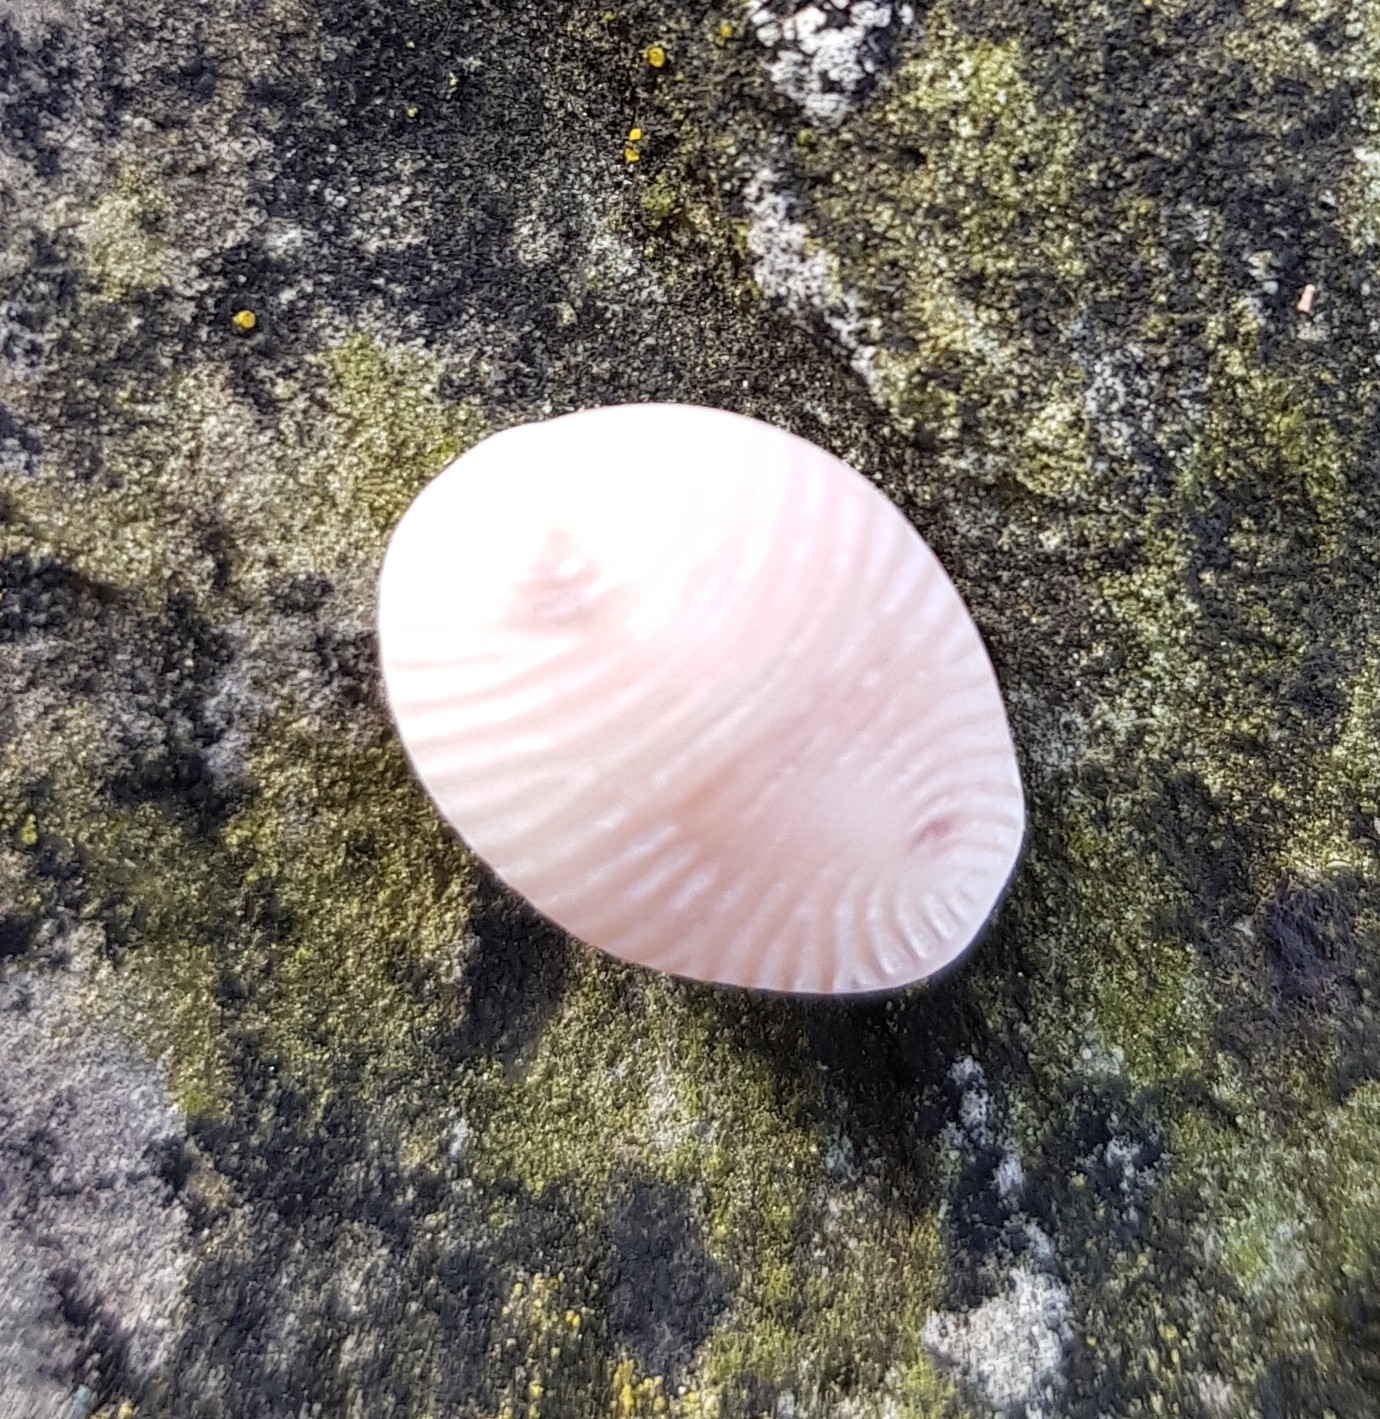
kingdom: Animalia
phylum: Mollusca
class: Gastropoda
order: Littorinimorpha
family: Triviidae
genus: Trivia
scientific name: Trivia monacha
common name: Spotted cowrie
